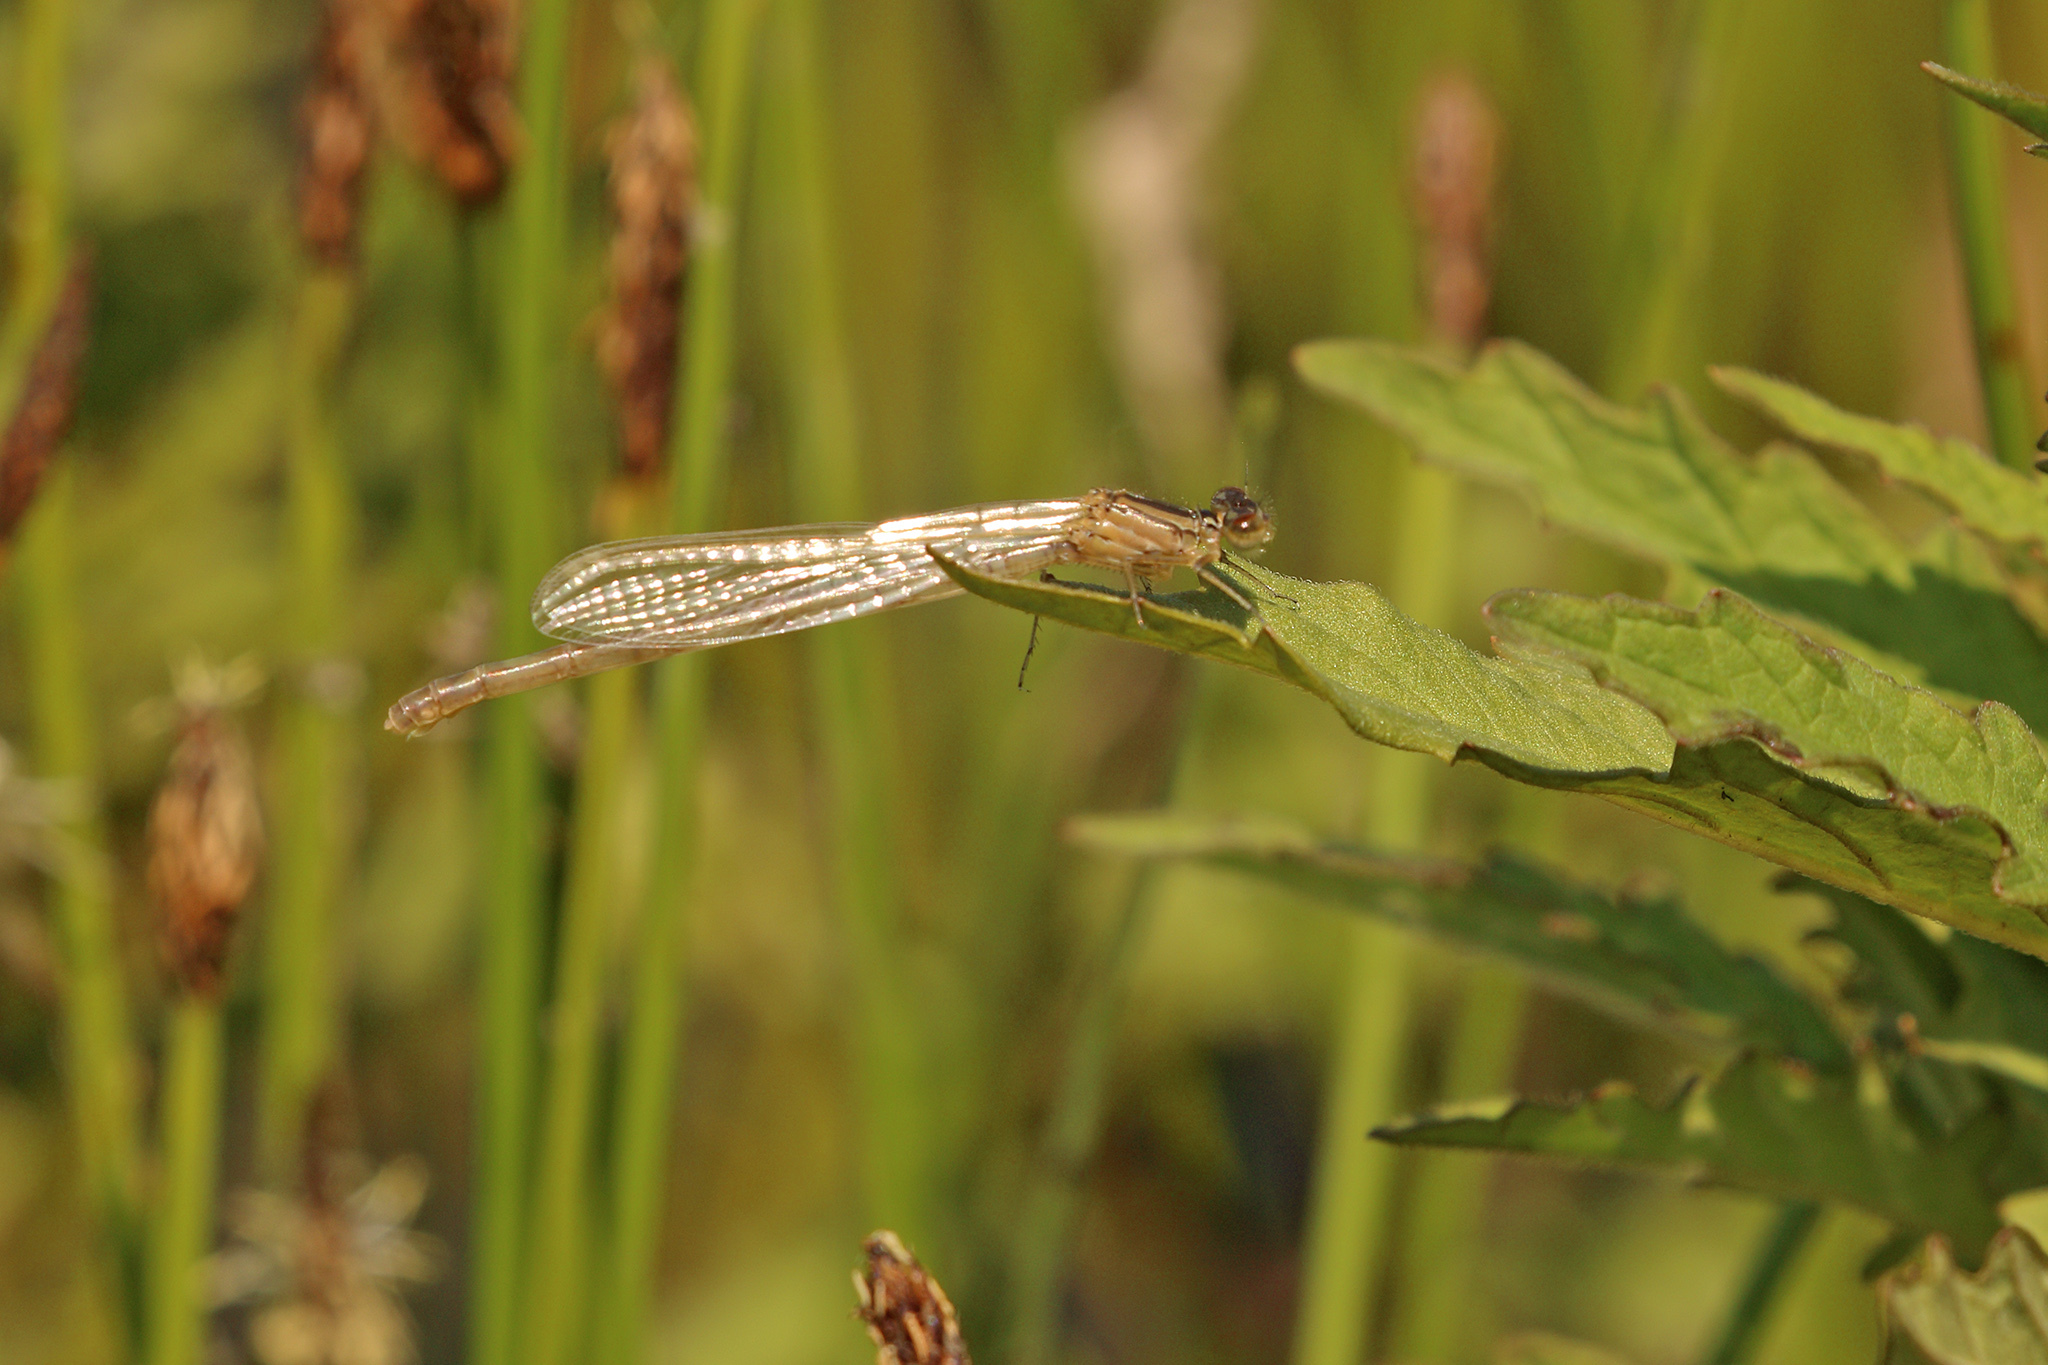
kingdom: Animalia
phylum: Arthropoda
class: Insecta
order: Odonata
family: Coenagrionidae
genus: Enallagma
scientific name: Enallagma cyathigerum
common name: Common blue damselfly
